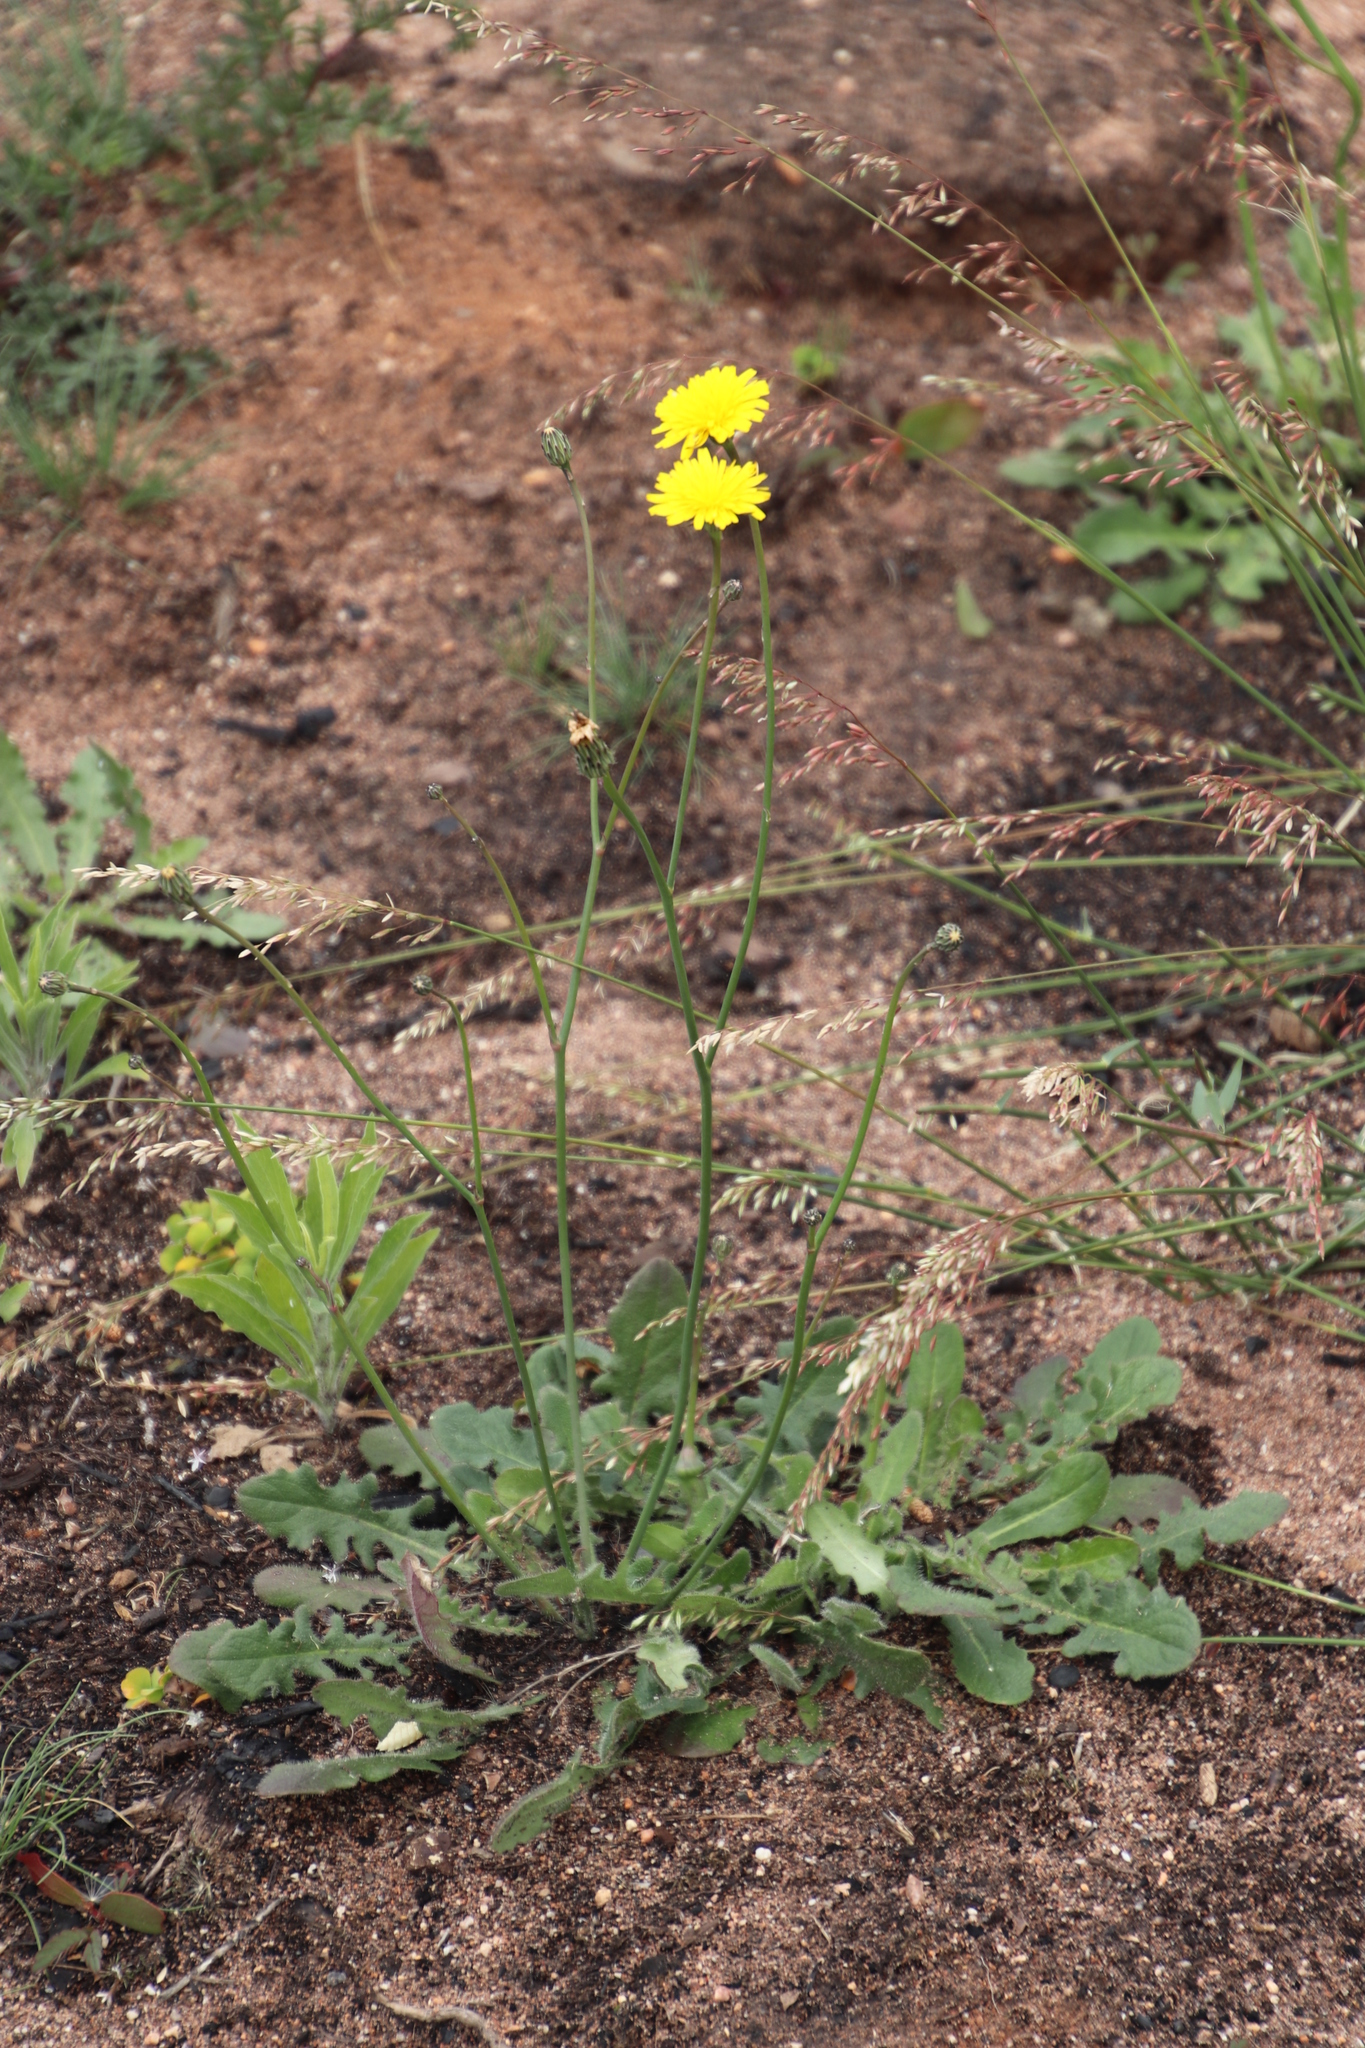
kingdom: Plantae
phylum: Tracheophyta
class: Magnoliopsida
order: Asterales
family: Asteraceae
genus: Hypochaeris
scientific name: Hypochaeris radicata
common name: Flatweed
